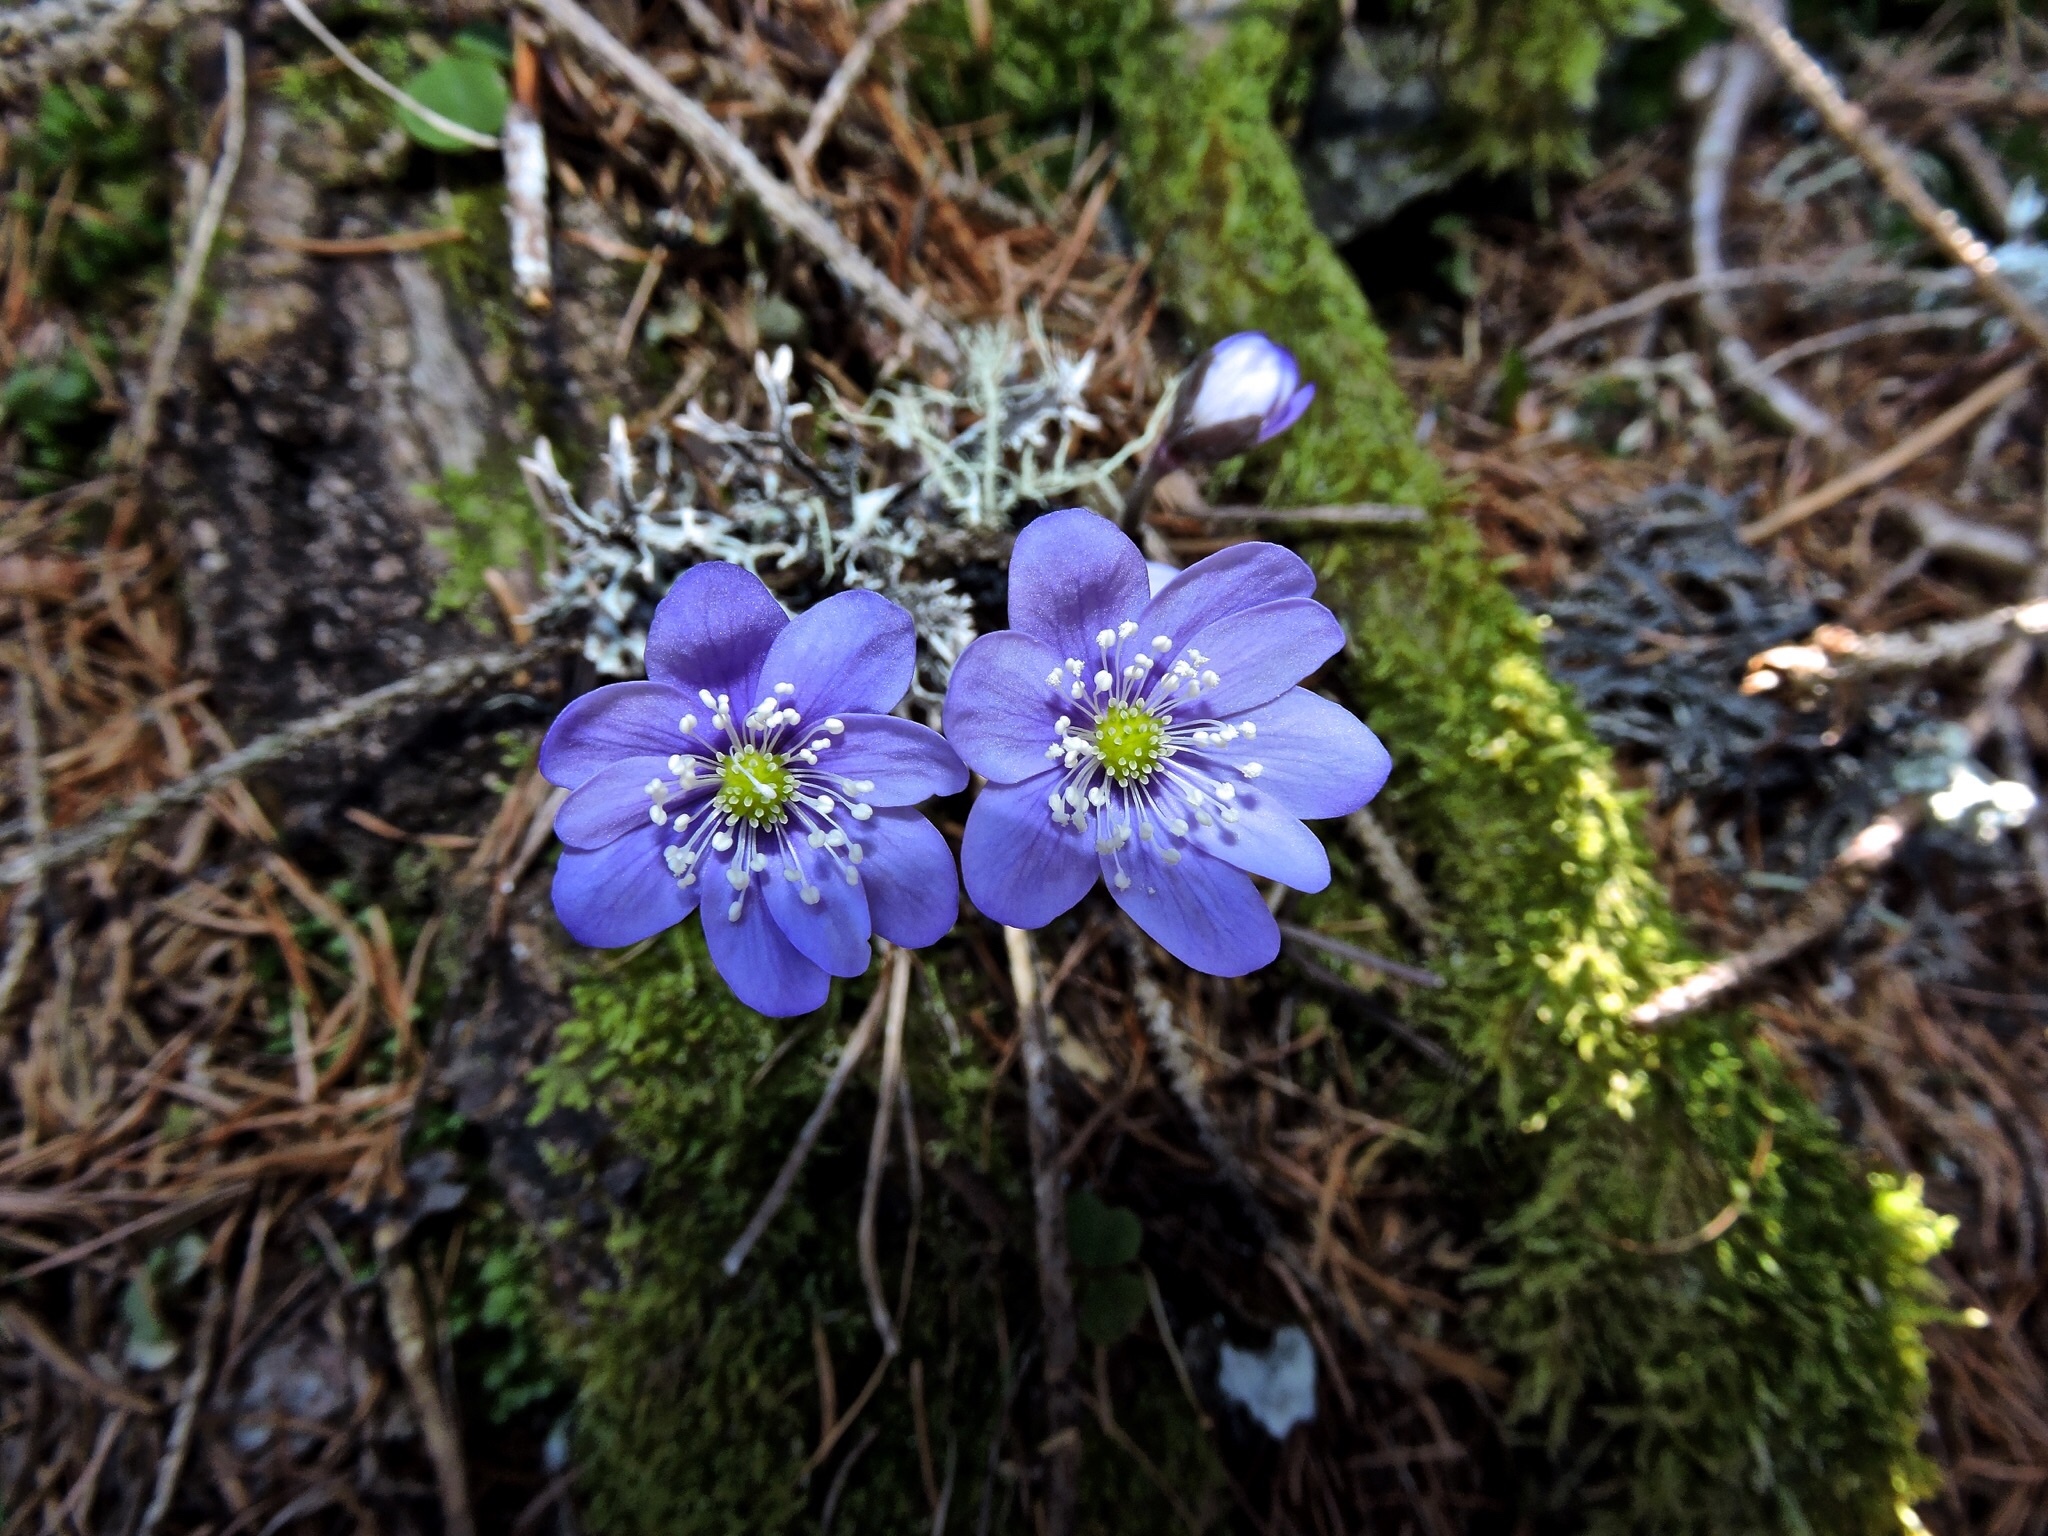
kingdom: Plantae
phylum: Tracheophyta
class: Magnoliopsida
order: Ranunculales
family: Ranunculaceae
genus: Hepatica
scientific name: Hepatica nobilis
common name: Liverleaf
